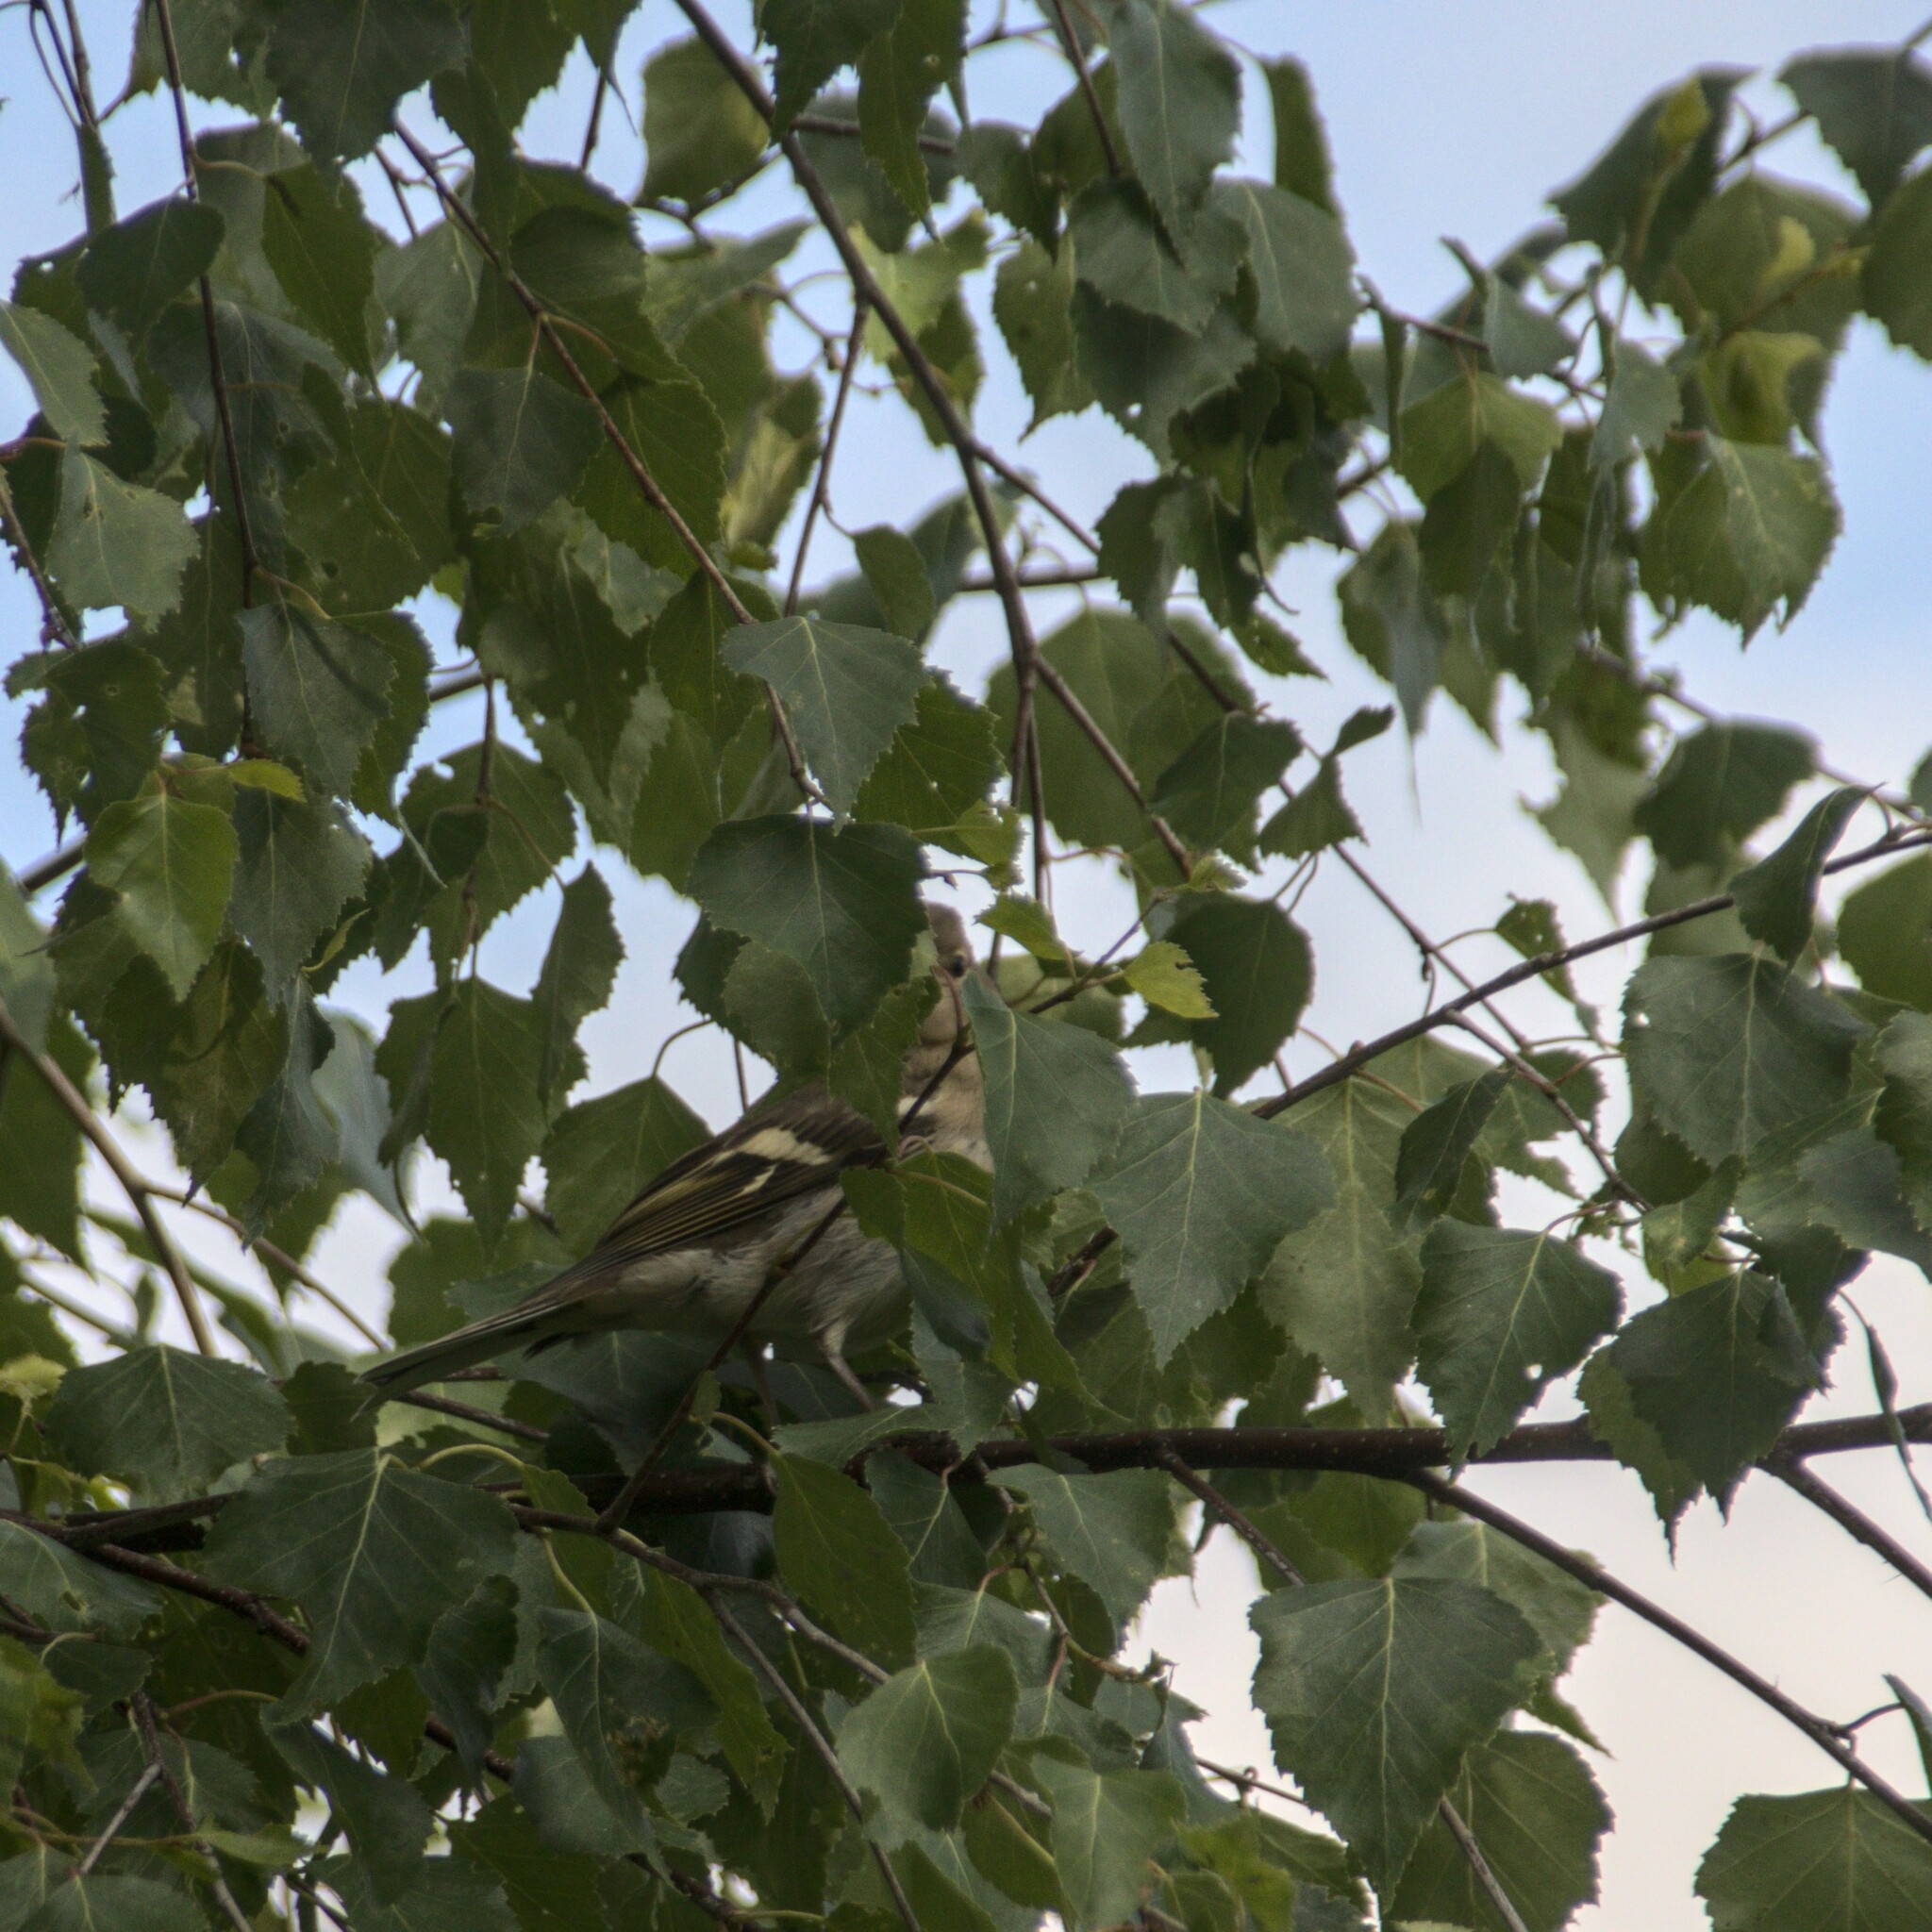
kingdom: Animalia
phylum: Chordata
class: Aves
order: Passeriformes
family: Fringillidae
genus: Fringilla
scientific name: Fringilla coelebs
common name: Common chaffinch
